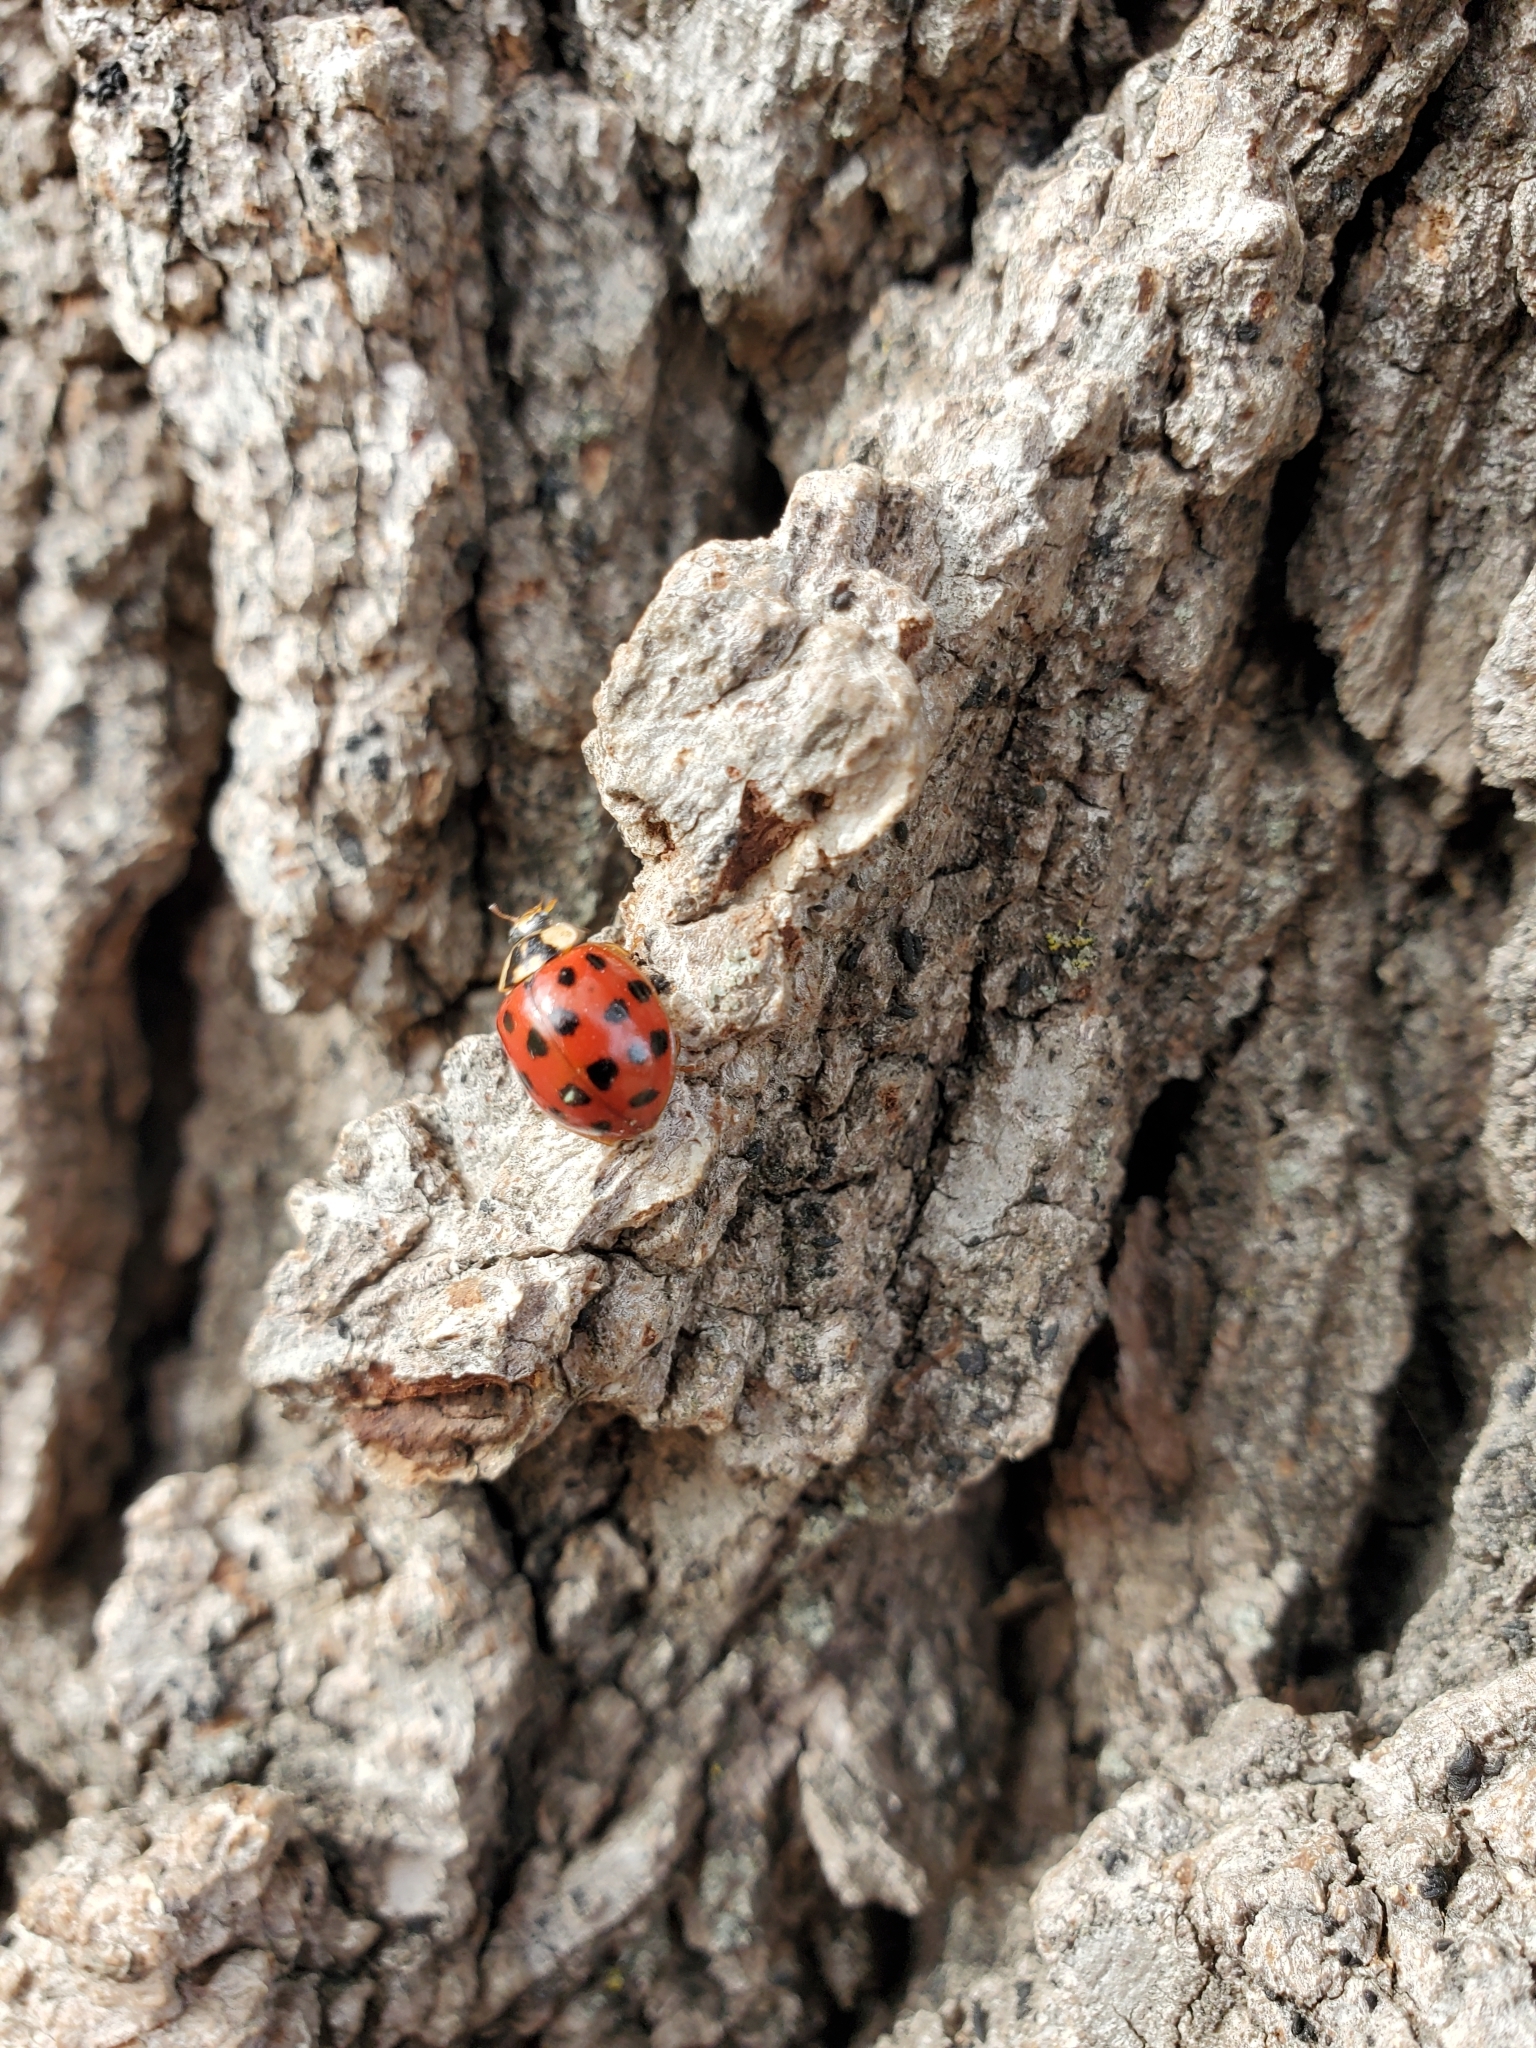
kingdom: Animalia
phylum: Arthropoda
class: Insecta
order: Coleoptera
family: Coccinellidae
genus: Harmonia
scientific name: Harmonia axyridis
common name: Harlequin ladybird
